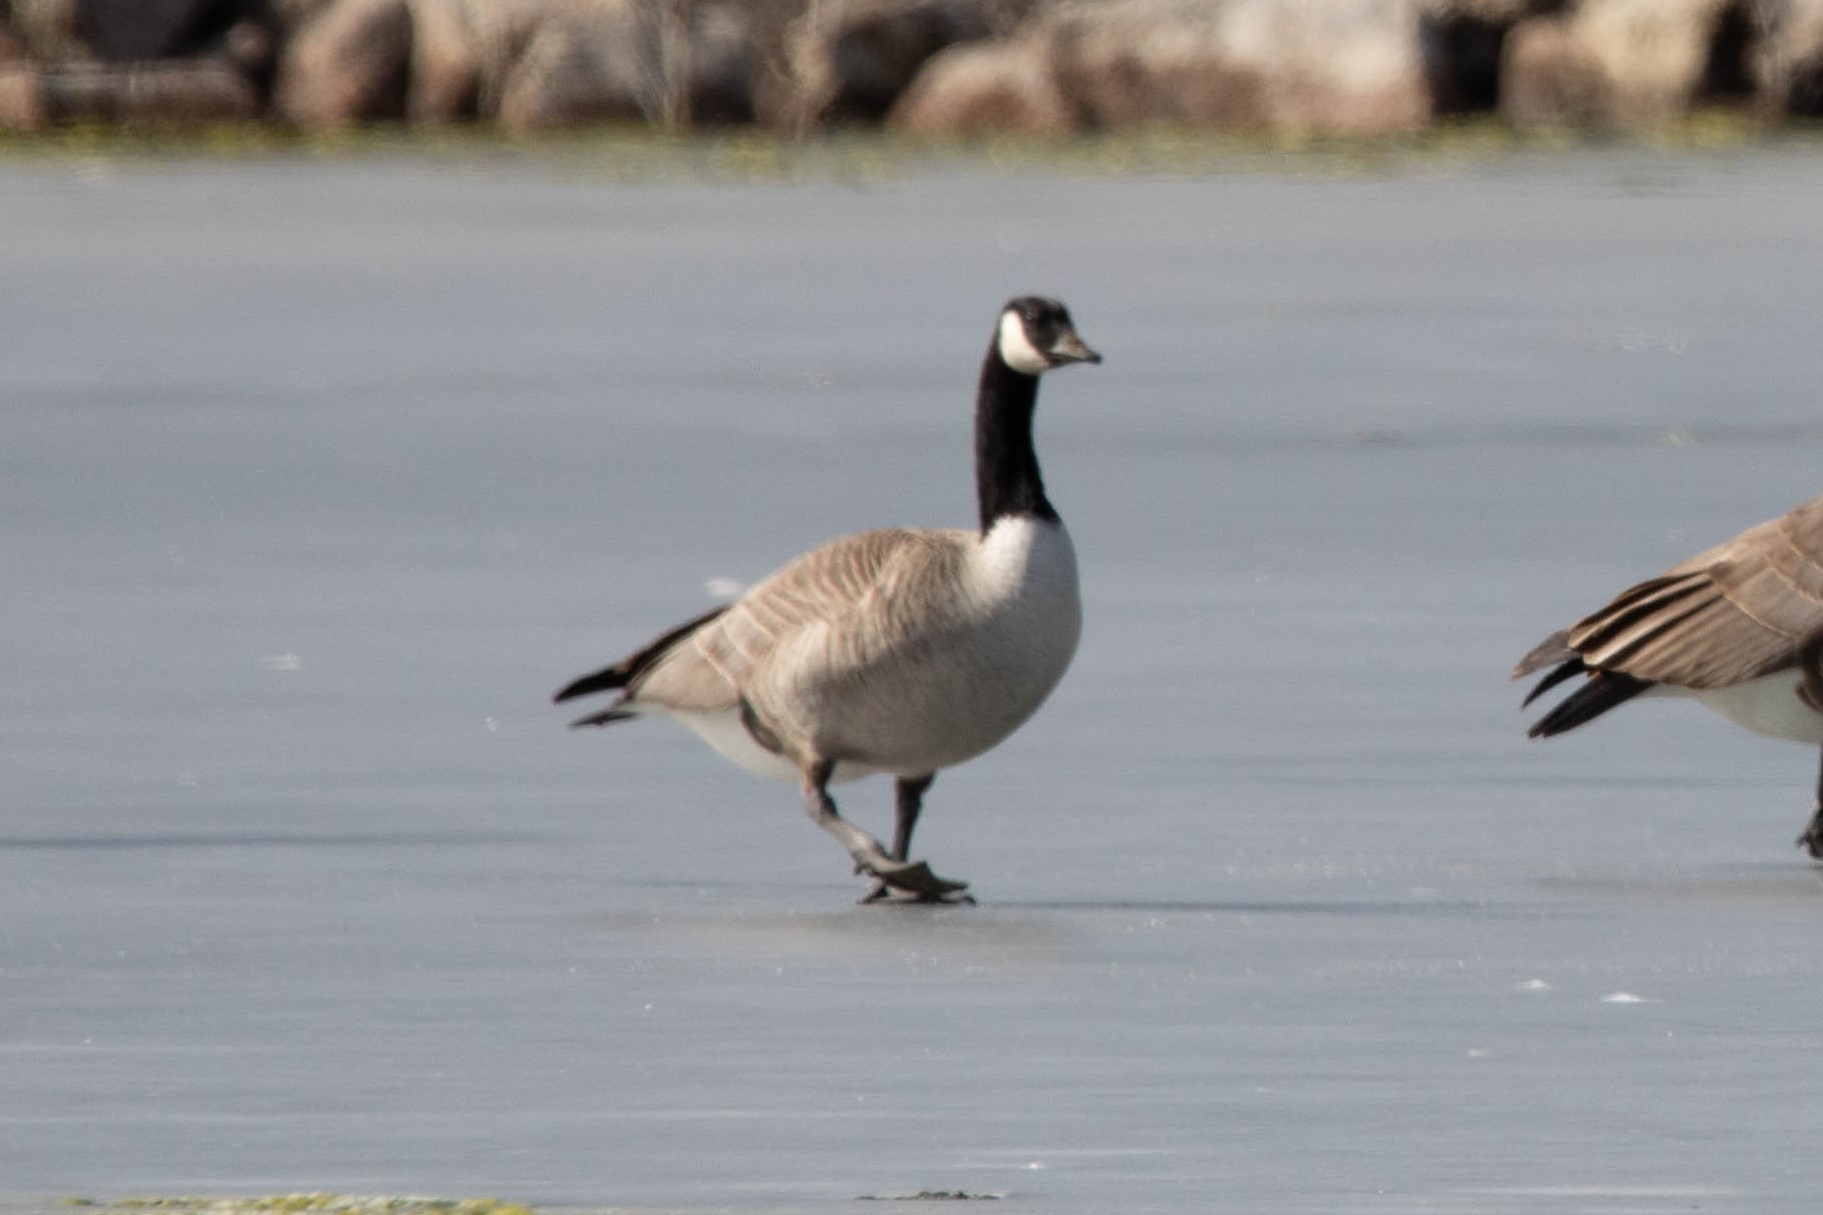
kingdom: Animalia
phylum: Chordata
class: Aves
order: Anseriformes
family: Anatidae
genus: Branta
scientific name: Branta hutchinsii
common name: Cackling goose
